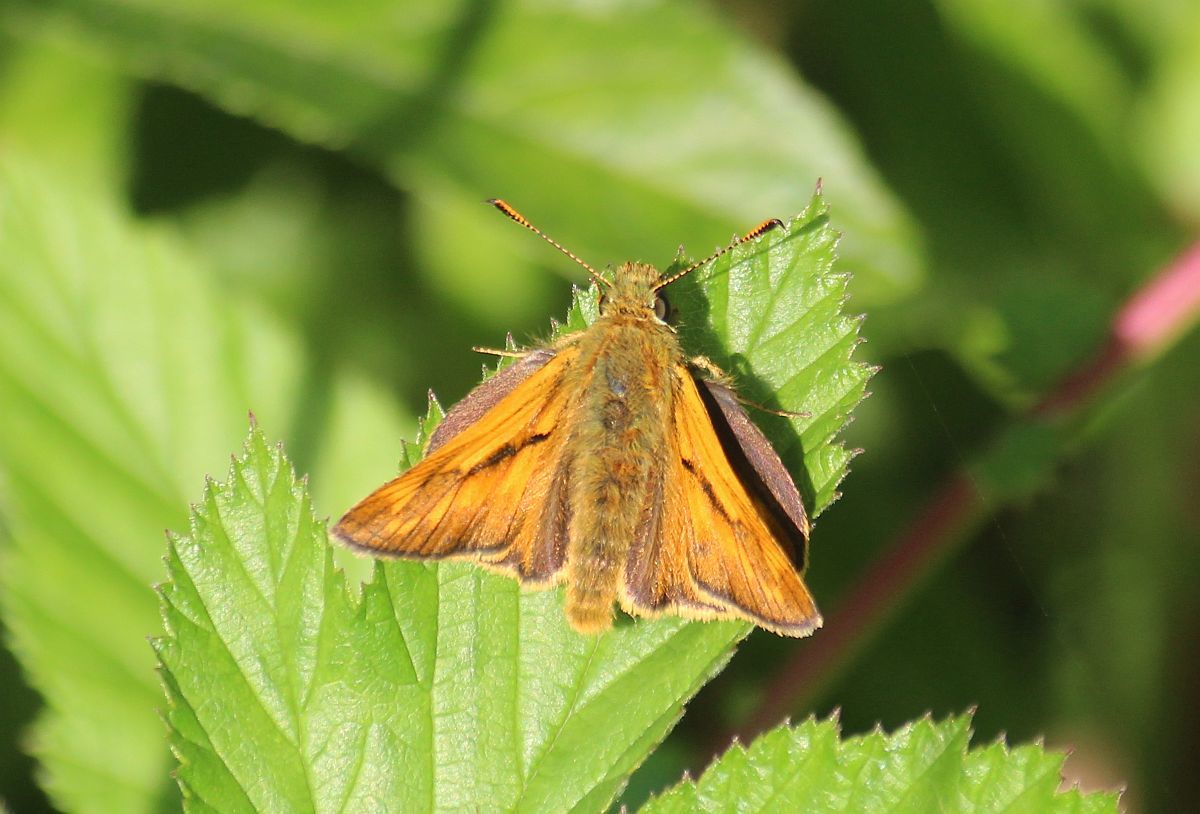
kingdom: Animalia
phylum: Arthropoda
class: Insecta
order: Lepidoptera
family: Hesperiidae
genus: Ochlodes
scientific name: Ochlodes venata
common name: Large skipper
